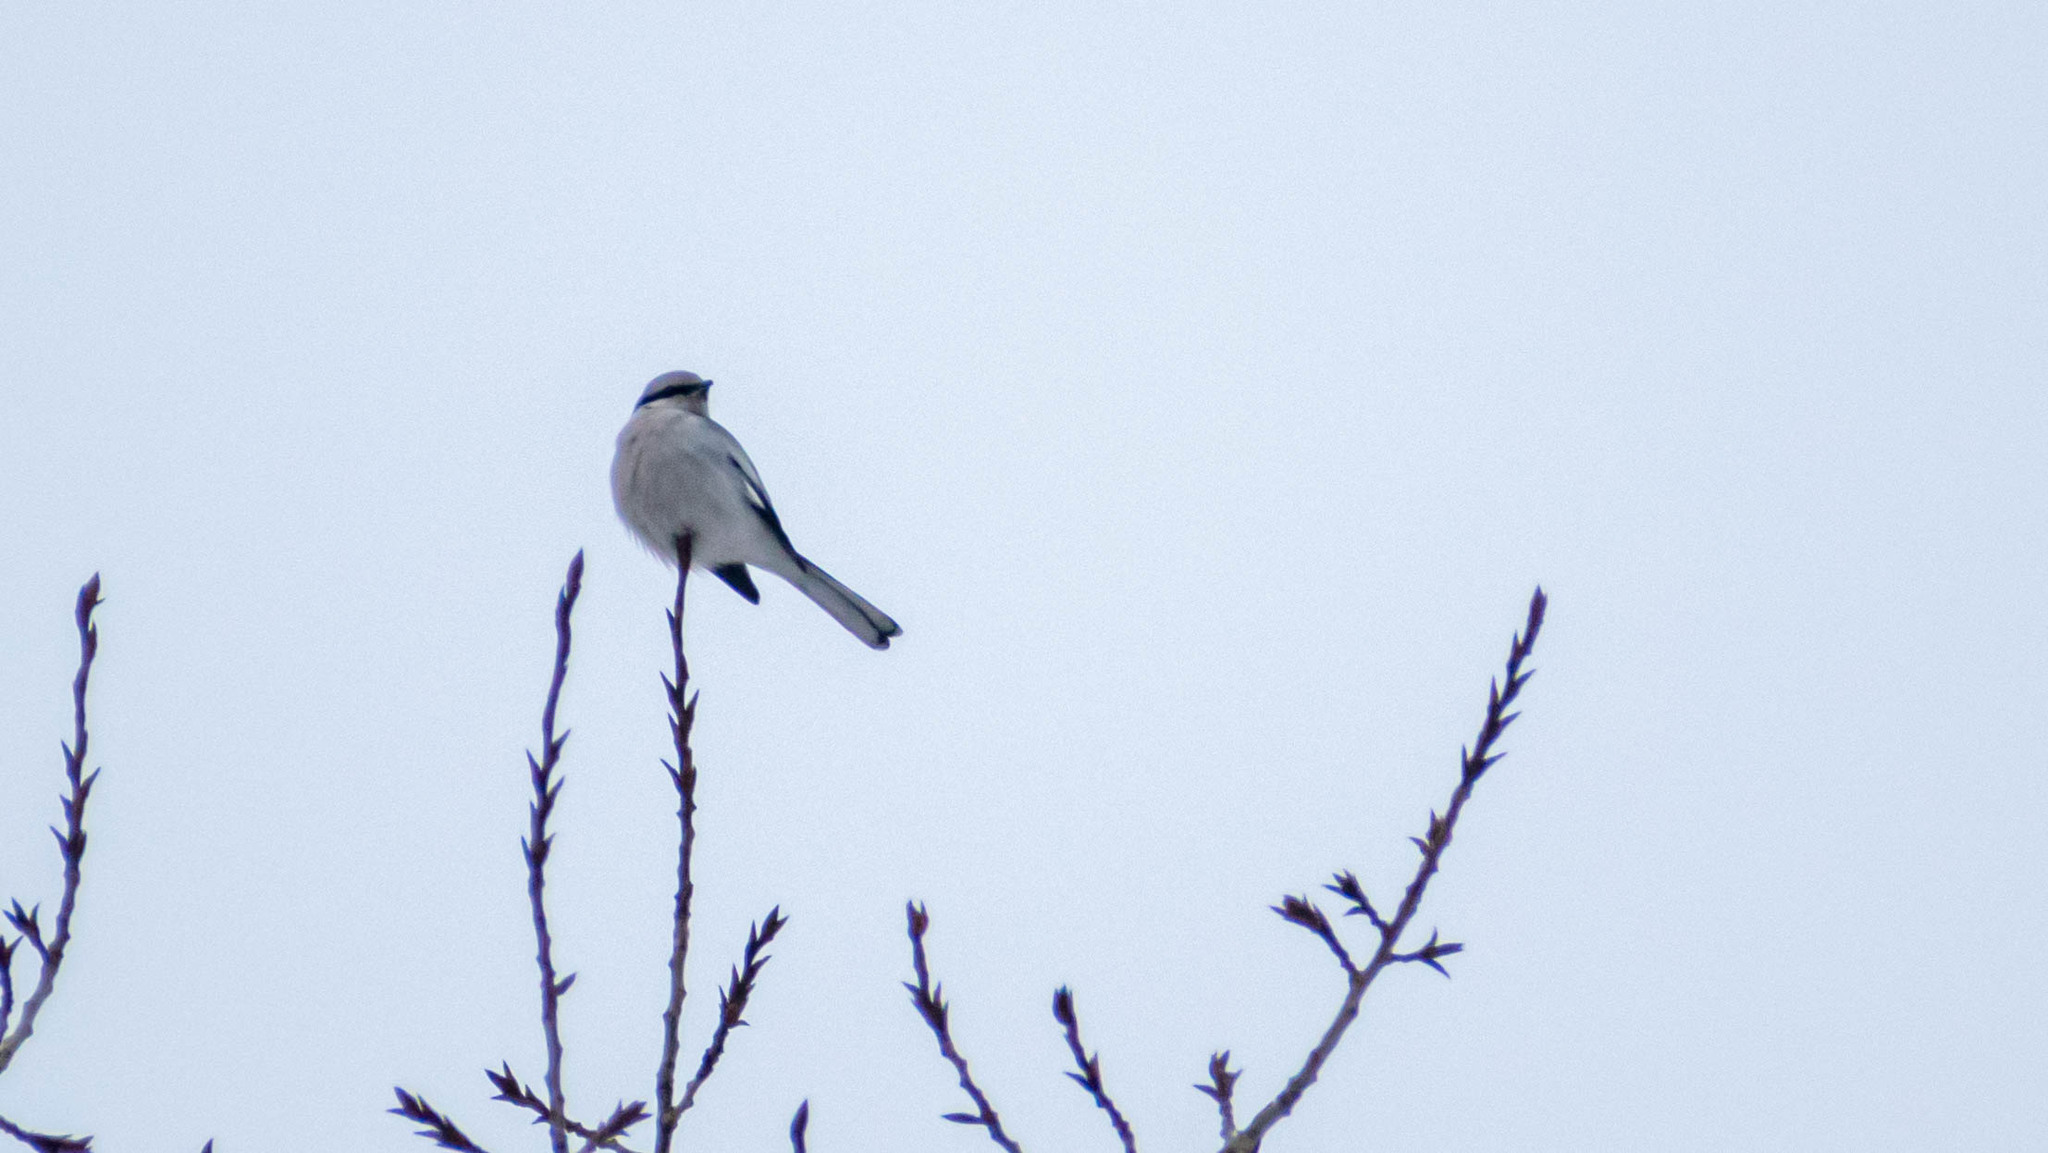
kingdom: Animalia
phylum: Chordata
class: Aves
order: Passeriformes
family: Laniidae
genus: Lanius
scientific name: Lanius excubitor
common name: Great grey shrike
